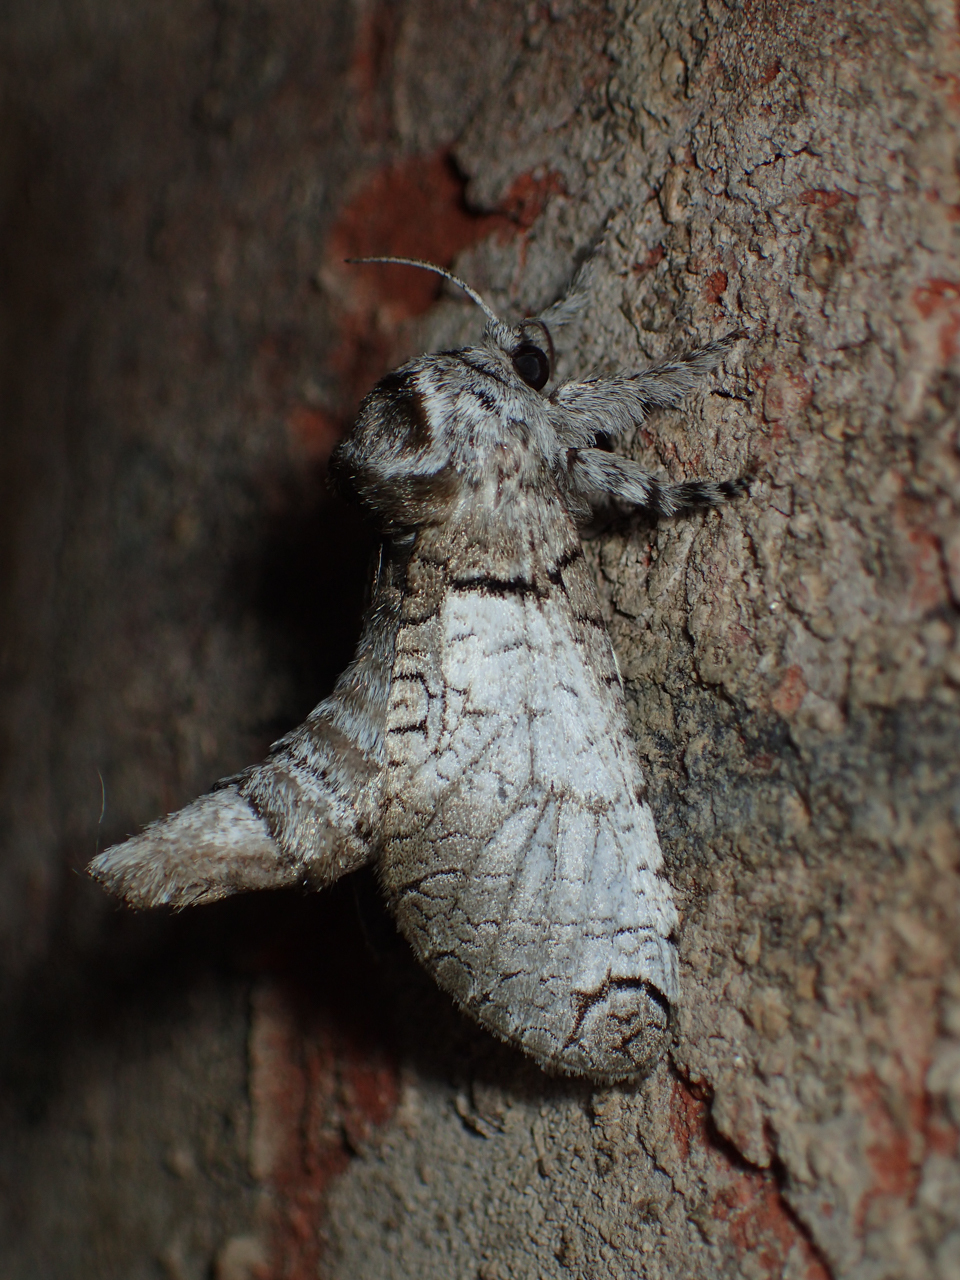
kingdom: Animalia
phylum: Arthropoda
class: Insecta
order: Lepidoptera
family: Cossidae
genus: Inguromorpha
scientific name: Inguromorpha basalis
